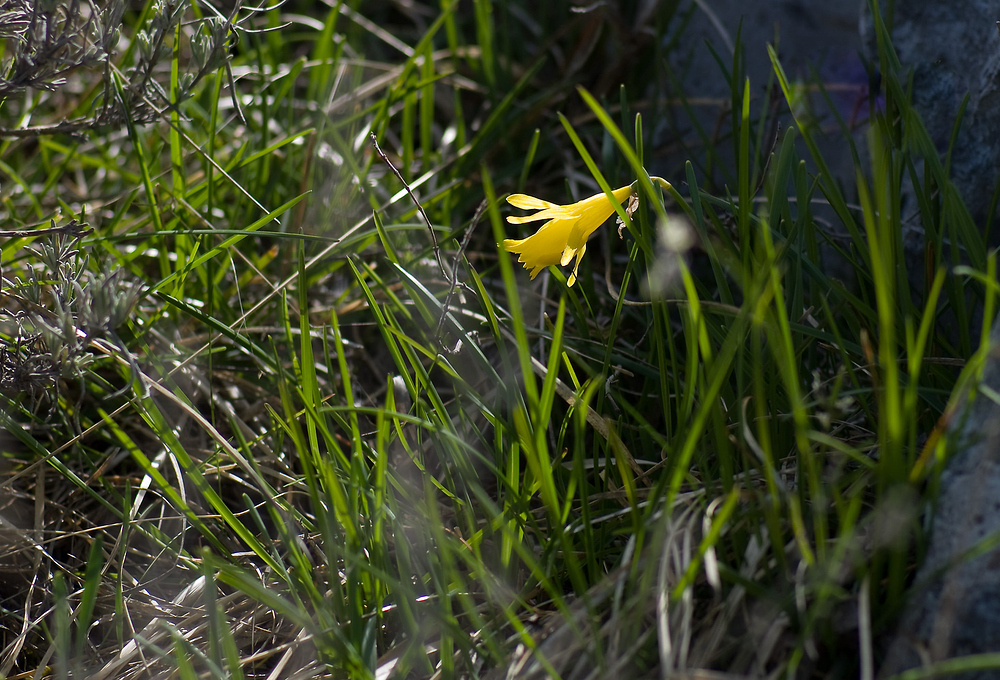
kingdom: Plantae
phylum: Tracheophyta
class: Liliopsida
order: Asparagales
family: Amaryllidaceae
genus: Narcissus
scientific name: Narcissus minor
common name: Lesser daffodil
